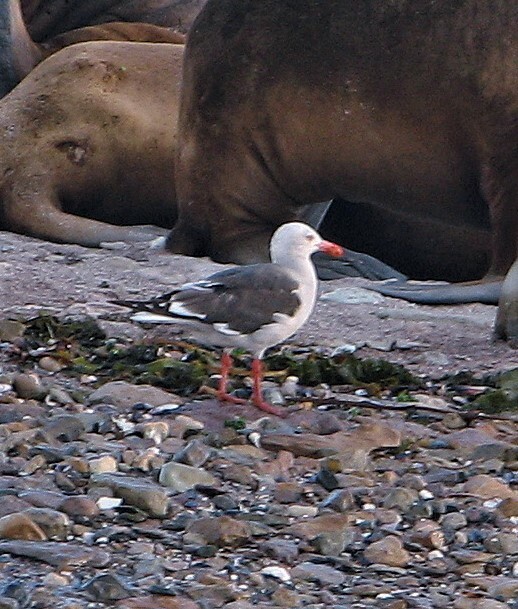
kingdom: Animalia
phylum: Chordata
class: Aves
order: Charadriiformes
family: Laridae
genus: Leucophaeus
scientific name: Leucophaeus scoresbii
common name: Dolphin gull
